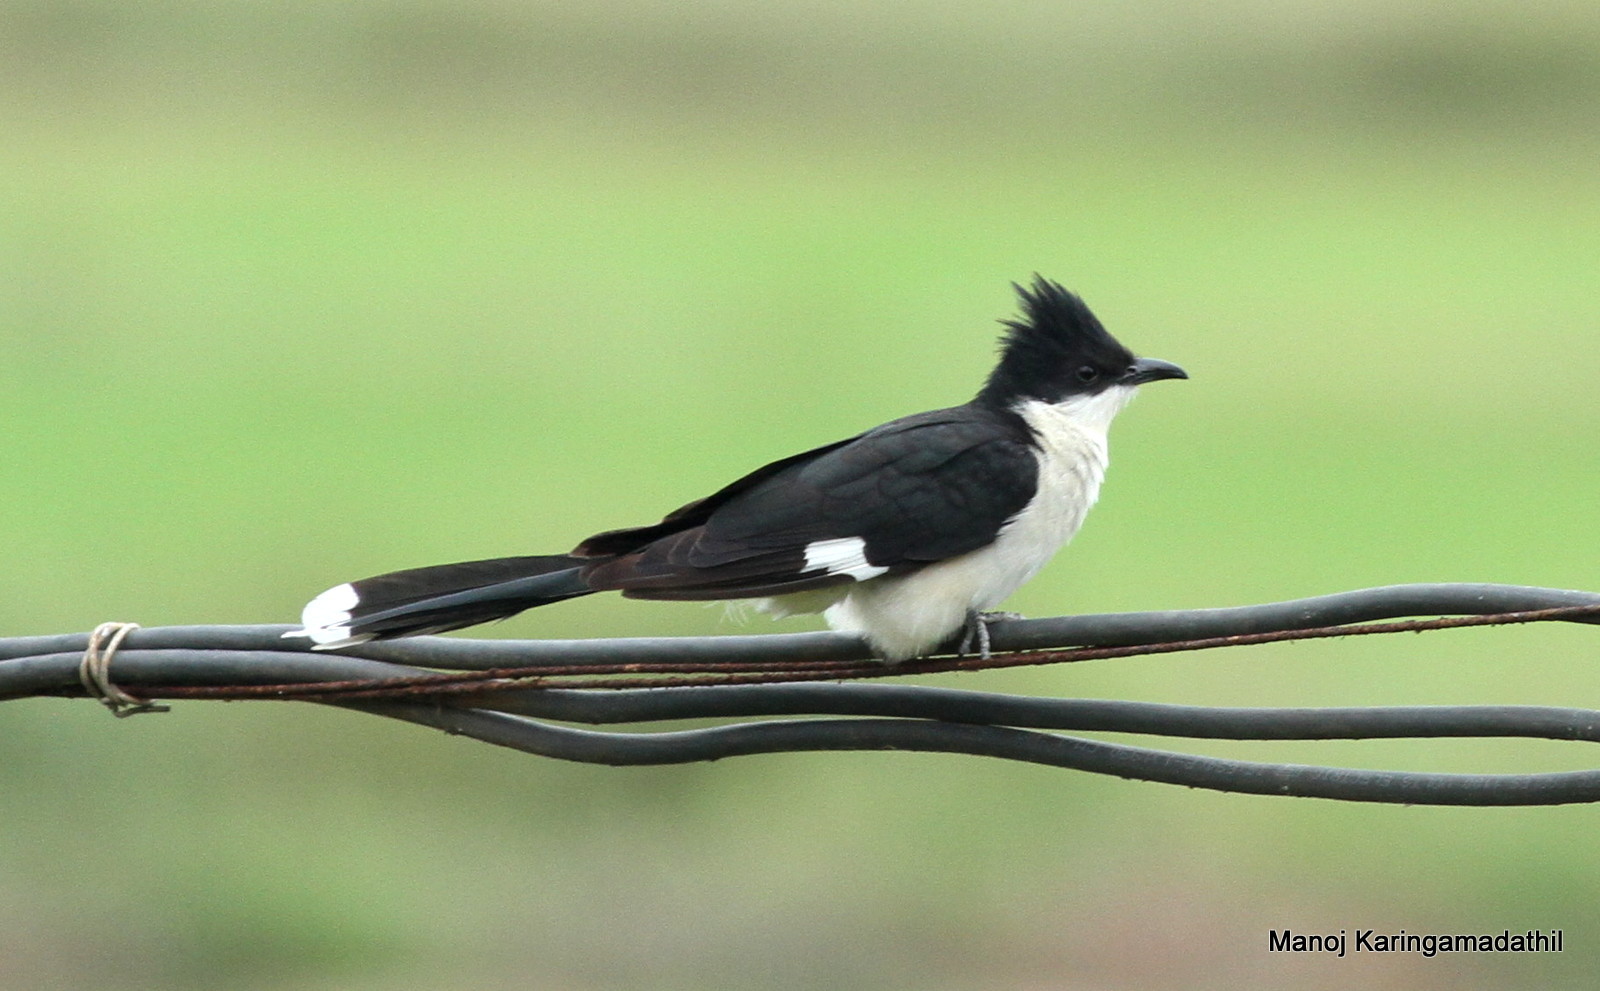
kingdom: Animalia
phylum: Chordata
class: Aves
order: Cuculiformes
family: Cuculidae
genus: Clamator
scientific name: Clamator jacobinus
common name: Jacobin cuckoo
